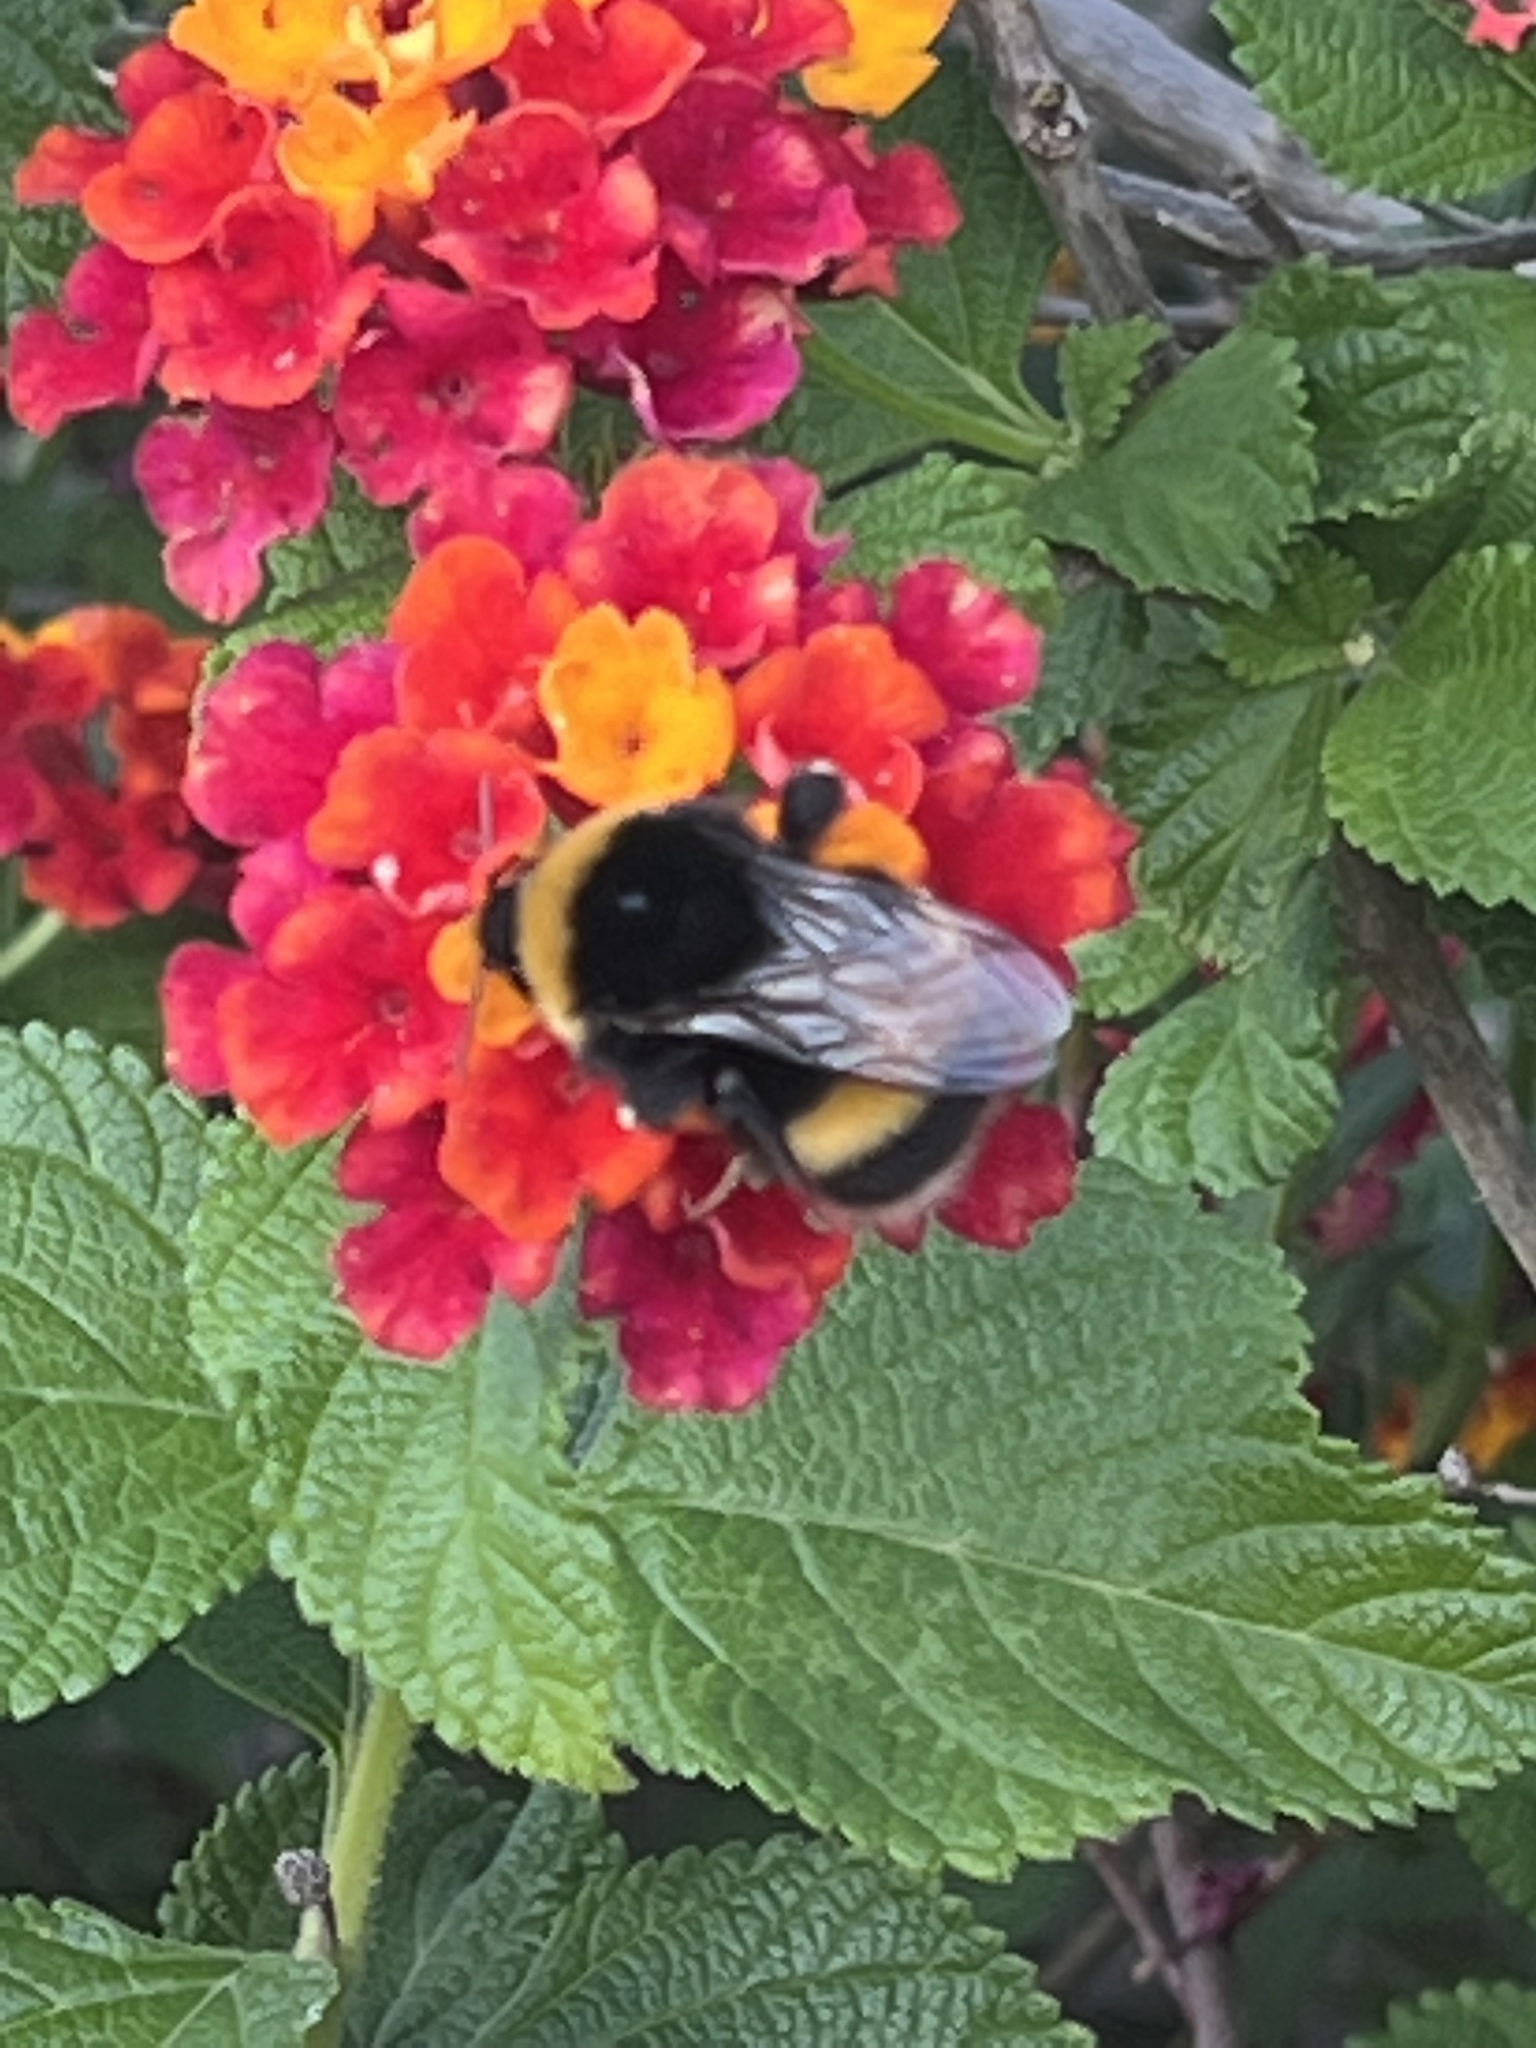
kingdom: Animalia
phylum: Arthropoda
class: Insecta
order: Hymenoptera
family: Apidae
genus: Bombus
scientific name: Bombus terrestris
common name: Buff-tailed bumblebee
